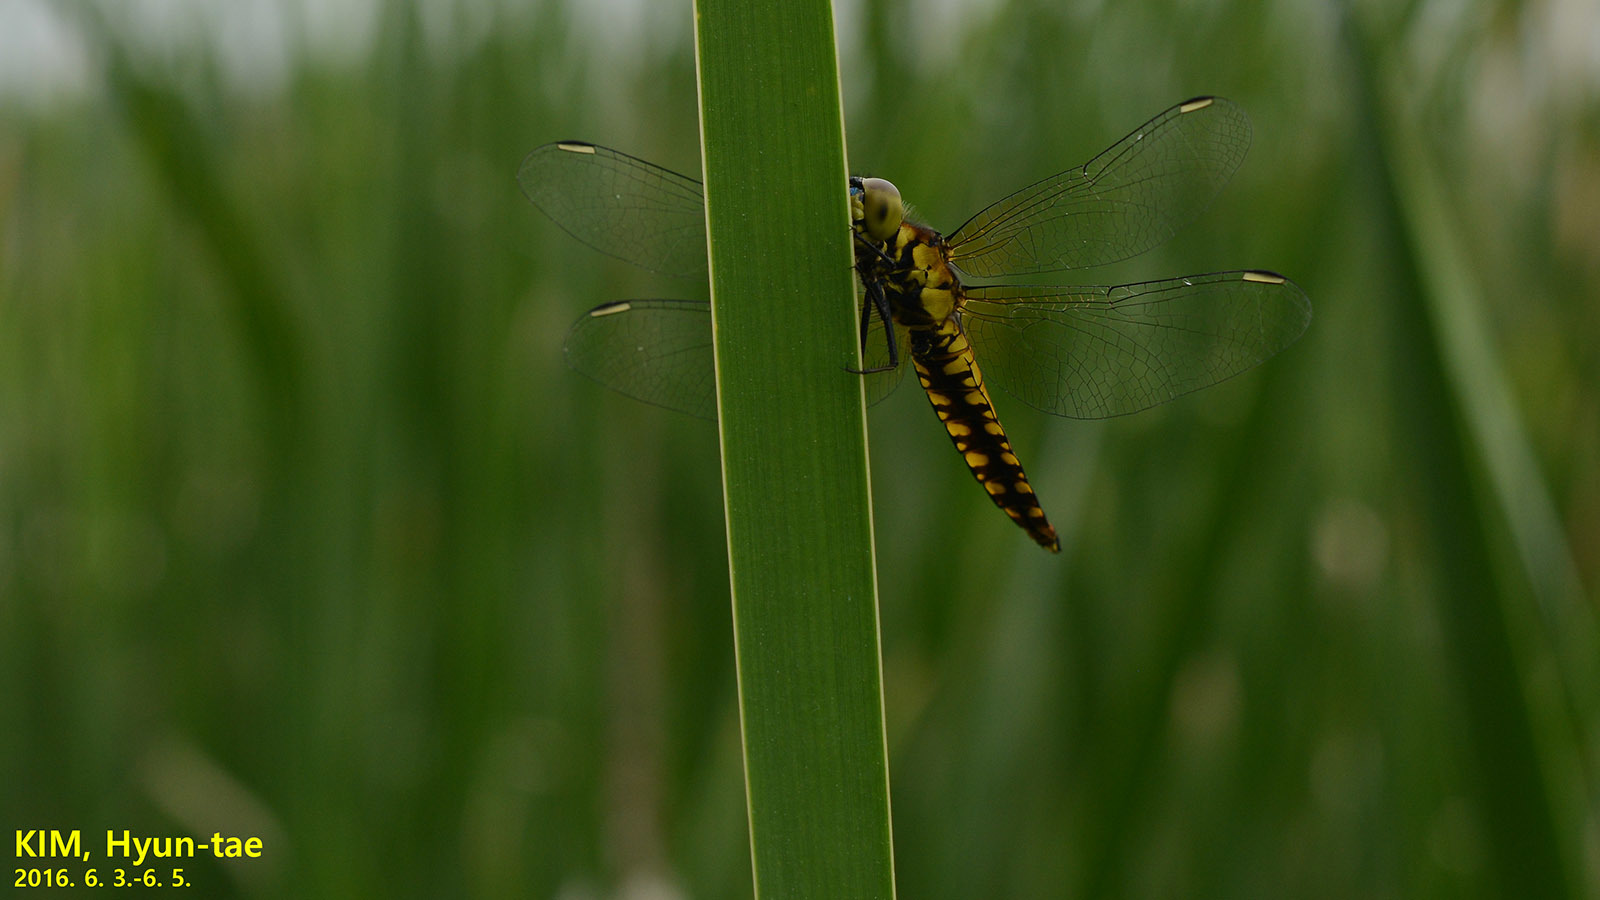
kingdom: Animalia
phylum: Arthropoda
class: Insecta
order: Odonata
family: Libellulidae
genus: Lyriothemis
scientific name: Lyriothemis pachygastra
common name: Wide-bellied skimmer
